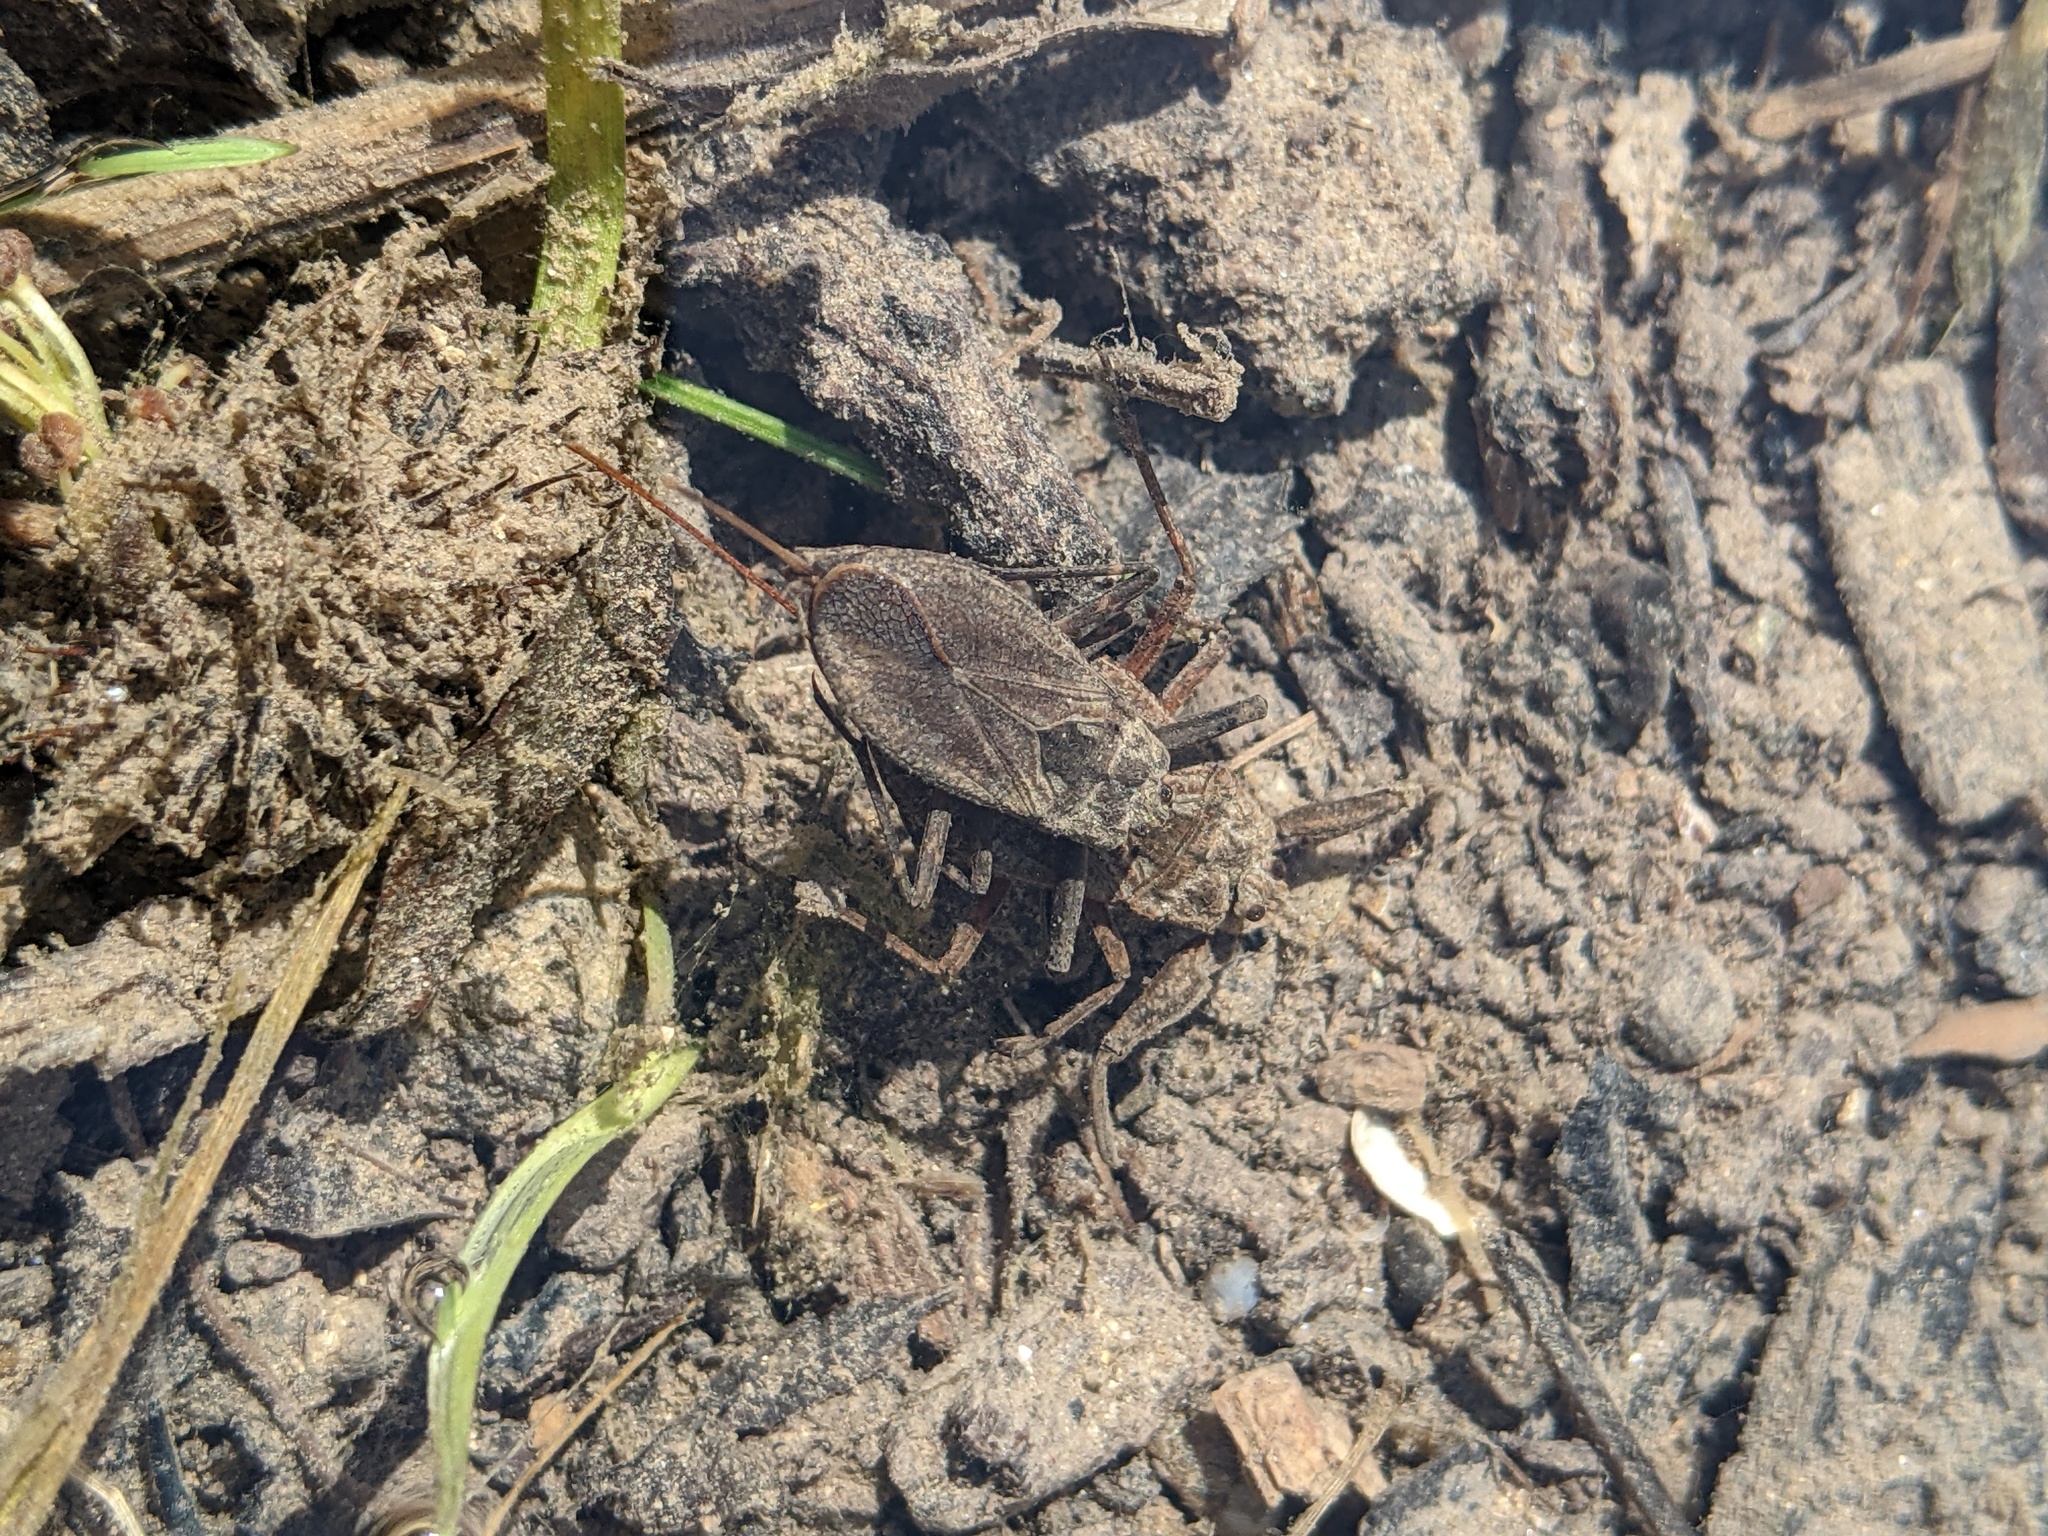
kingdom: Animalia
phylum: Arthropoda
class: Insecta
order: Hemiptera
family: Nepidae
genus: Nepa
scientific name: Nepa cinerea
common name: Water scorpion
